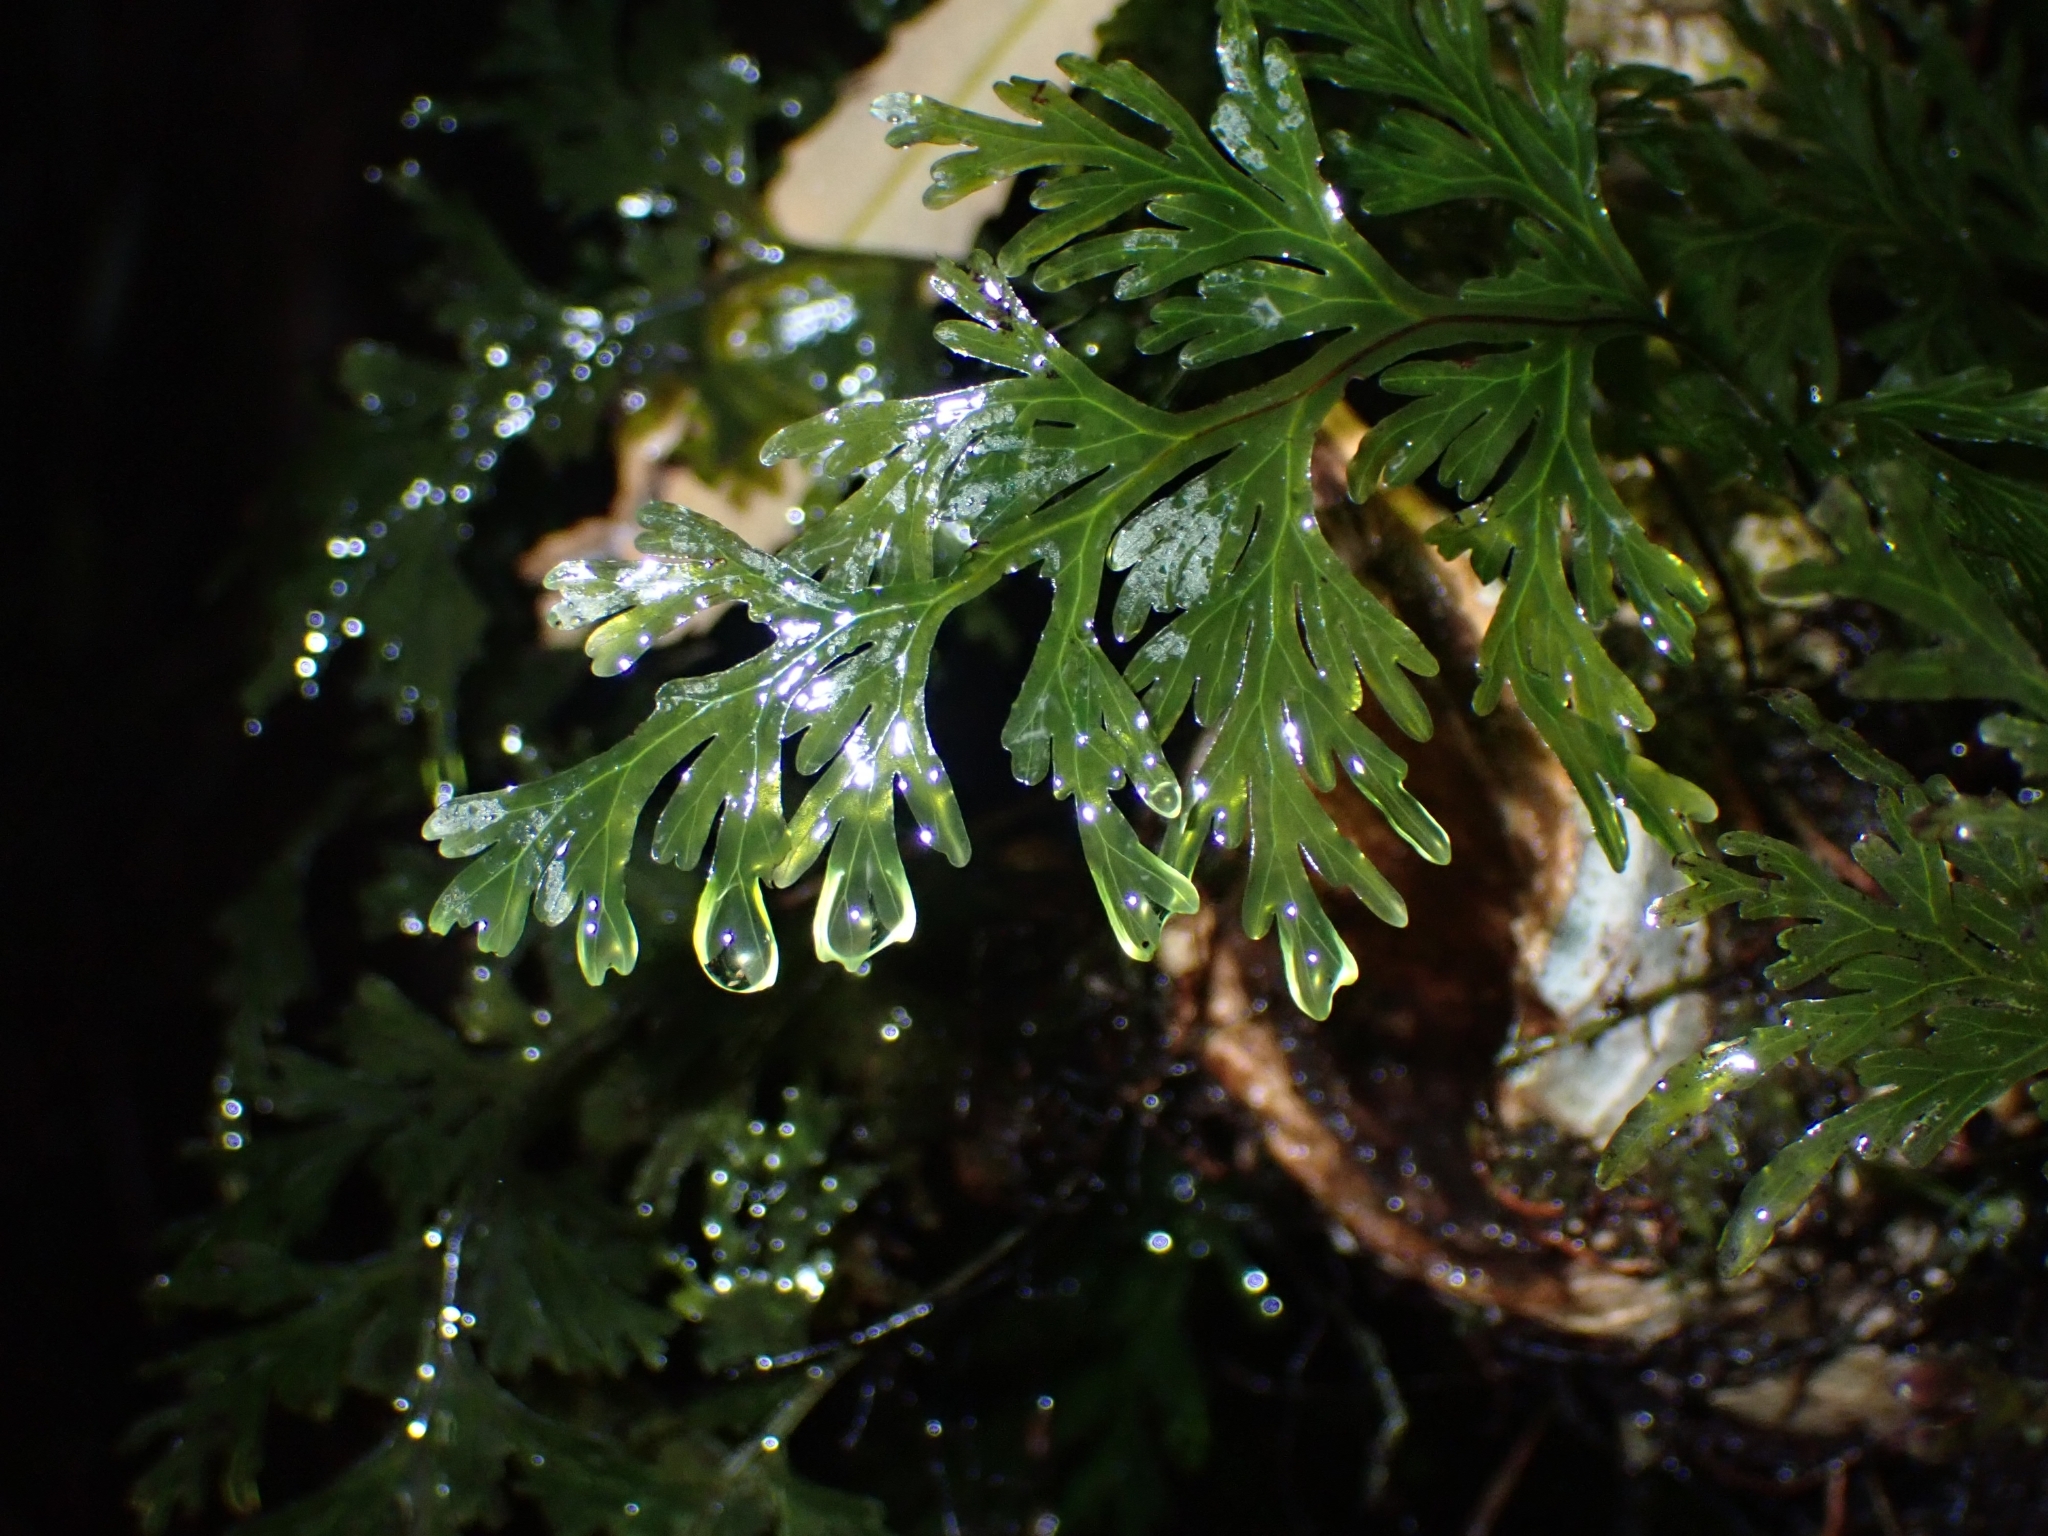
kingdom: Plantae
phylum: Tracheophyta
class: Polypodiopsida
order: Hymenophyllales
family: Hymenophyllaceae
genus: Hymenophyllum
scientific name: Hymenophyllum dilatatum
